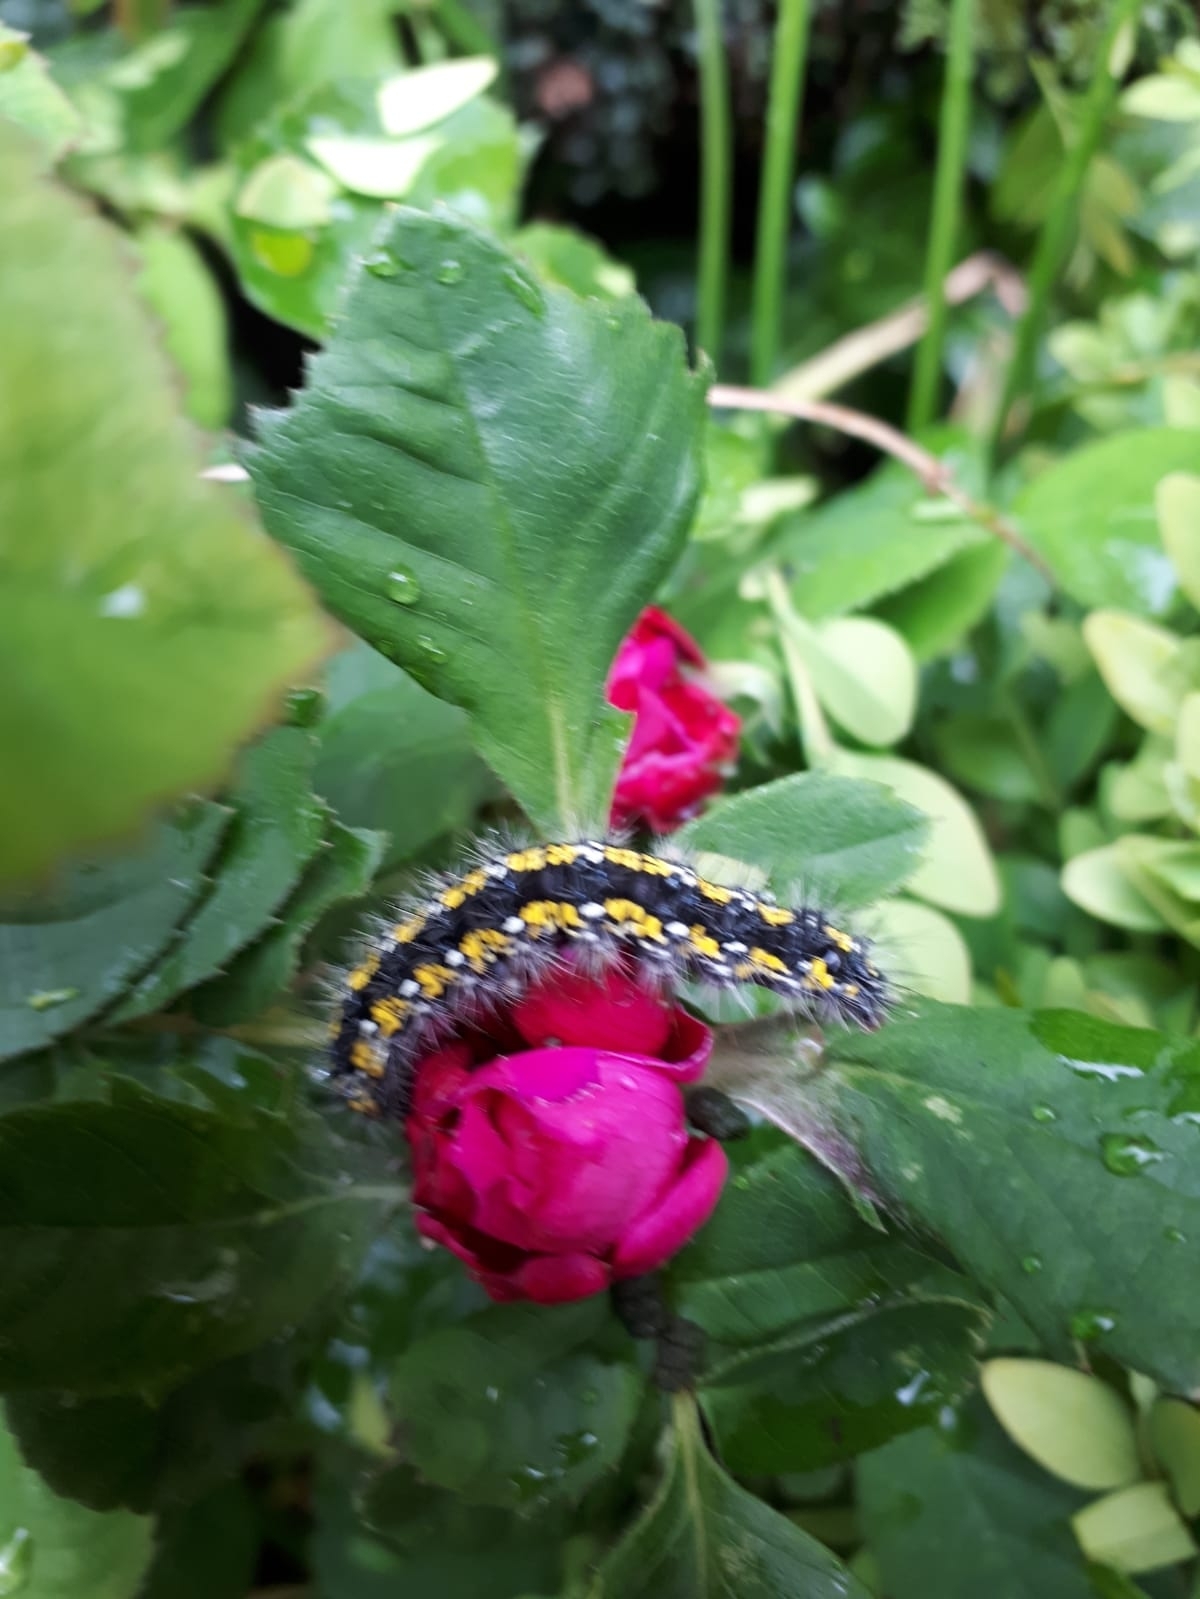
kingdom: Animalia
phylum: Arthropoda
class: Insecta
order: Lepidoptera
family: Erebidae
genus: Callimorpha
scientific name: Callimorpha dominula
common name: Scarlet tiger
